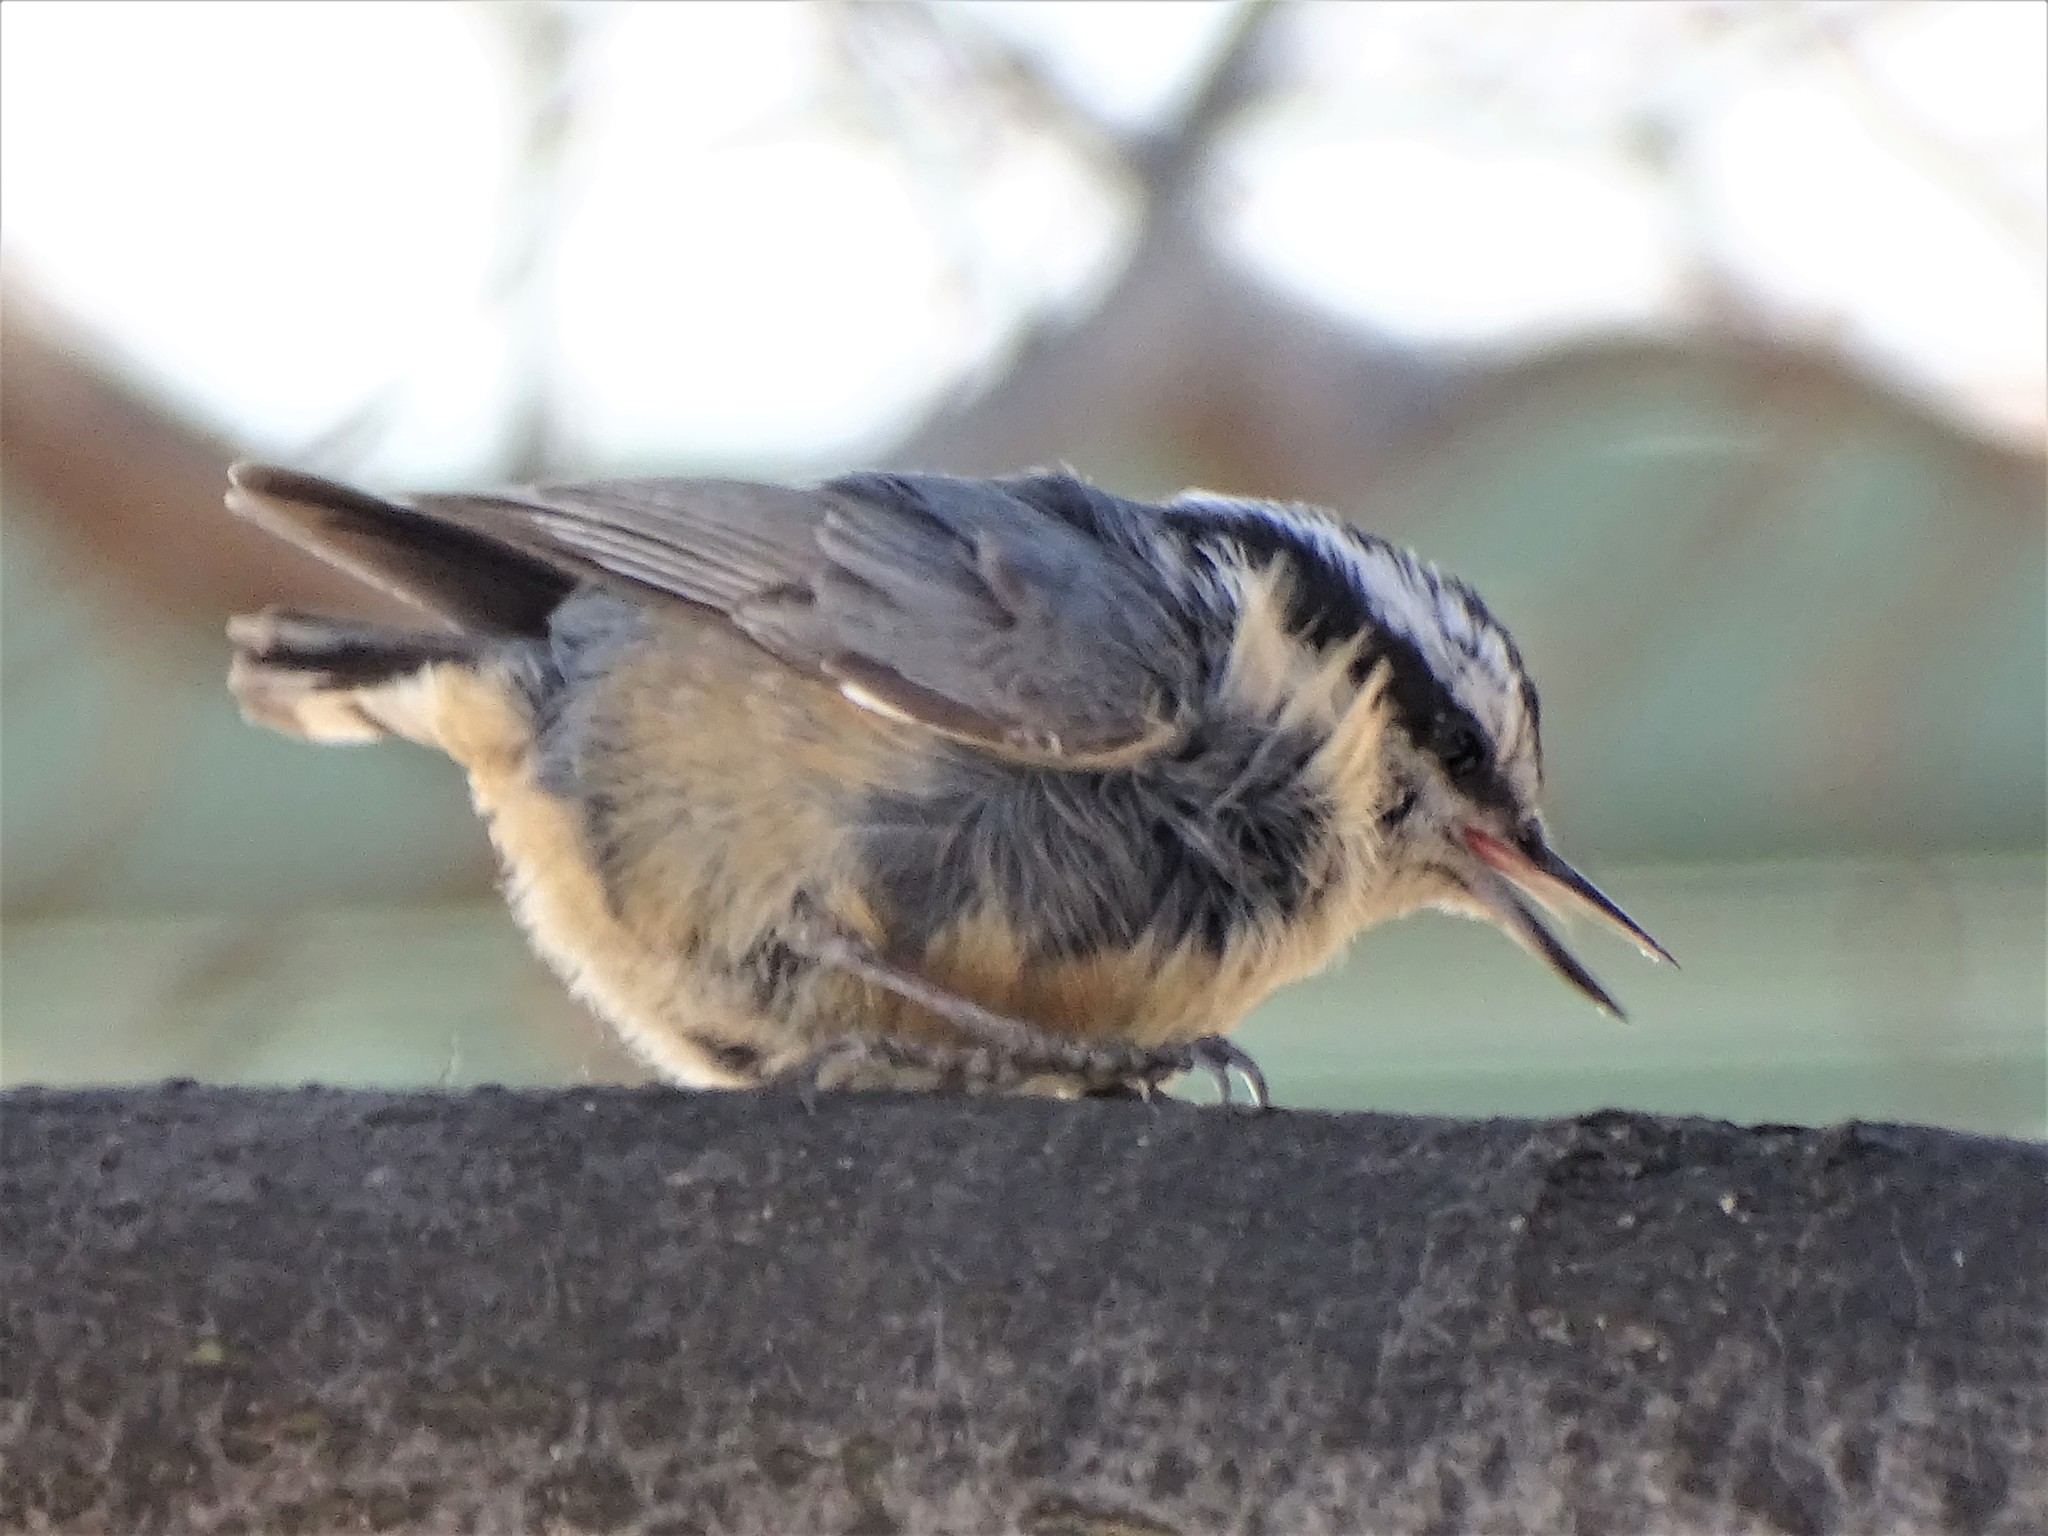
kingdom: Animalia
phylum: Chordata
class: Aves
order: Passeriformes
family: Sittidae
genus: Sitta
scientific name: Sitta canadensis
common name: Red-breasted nuthatch
